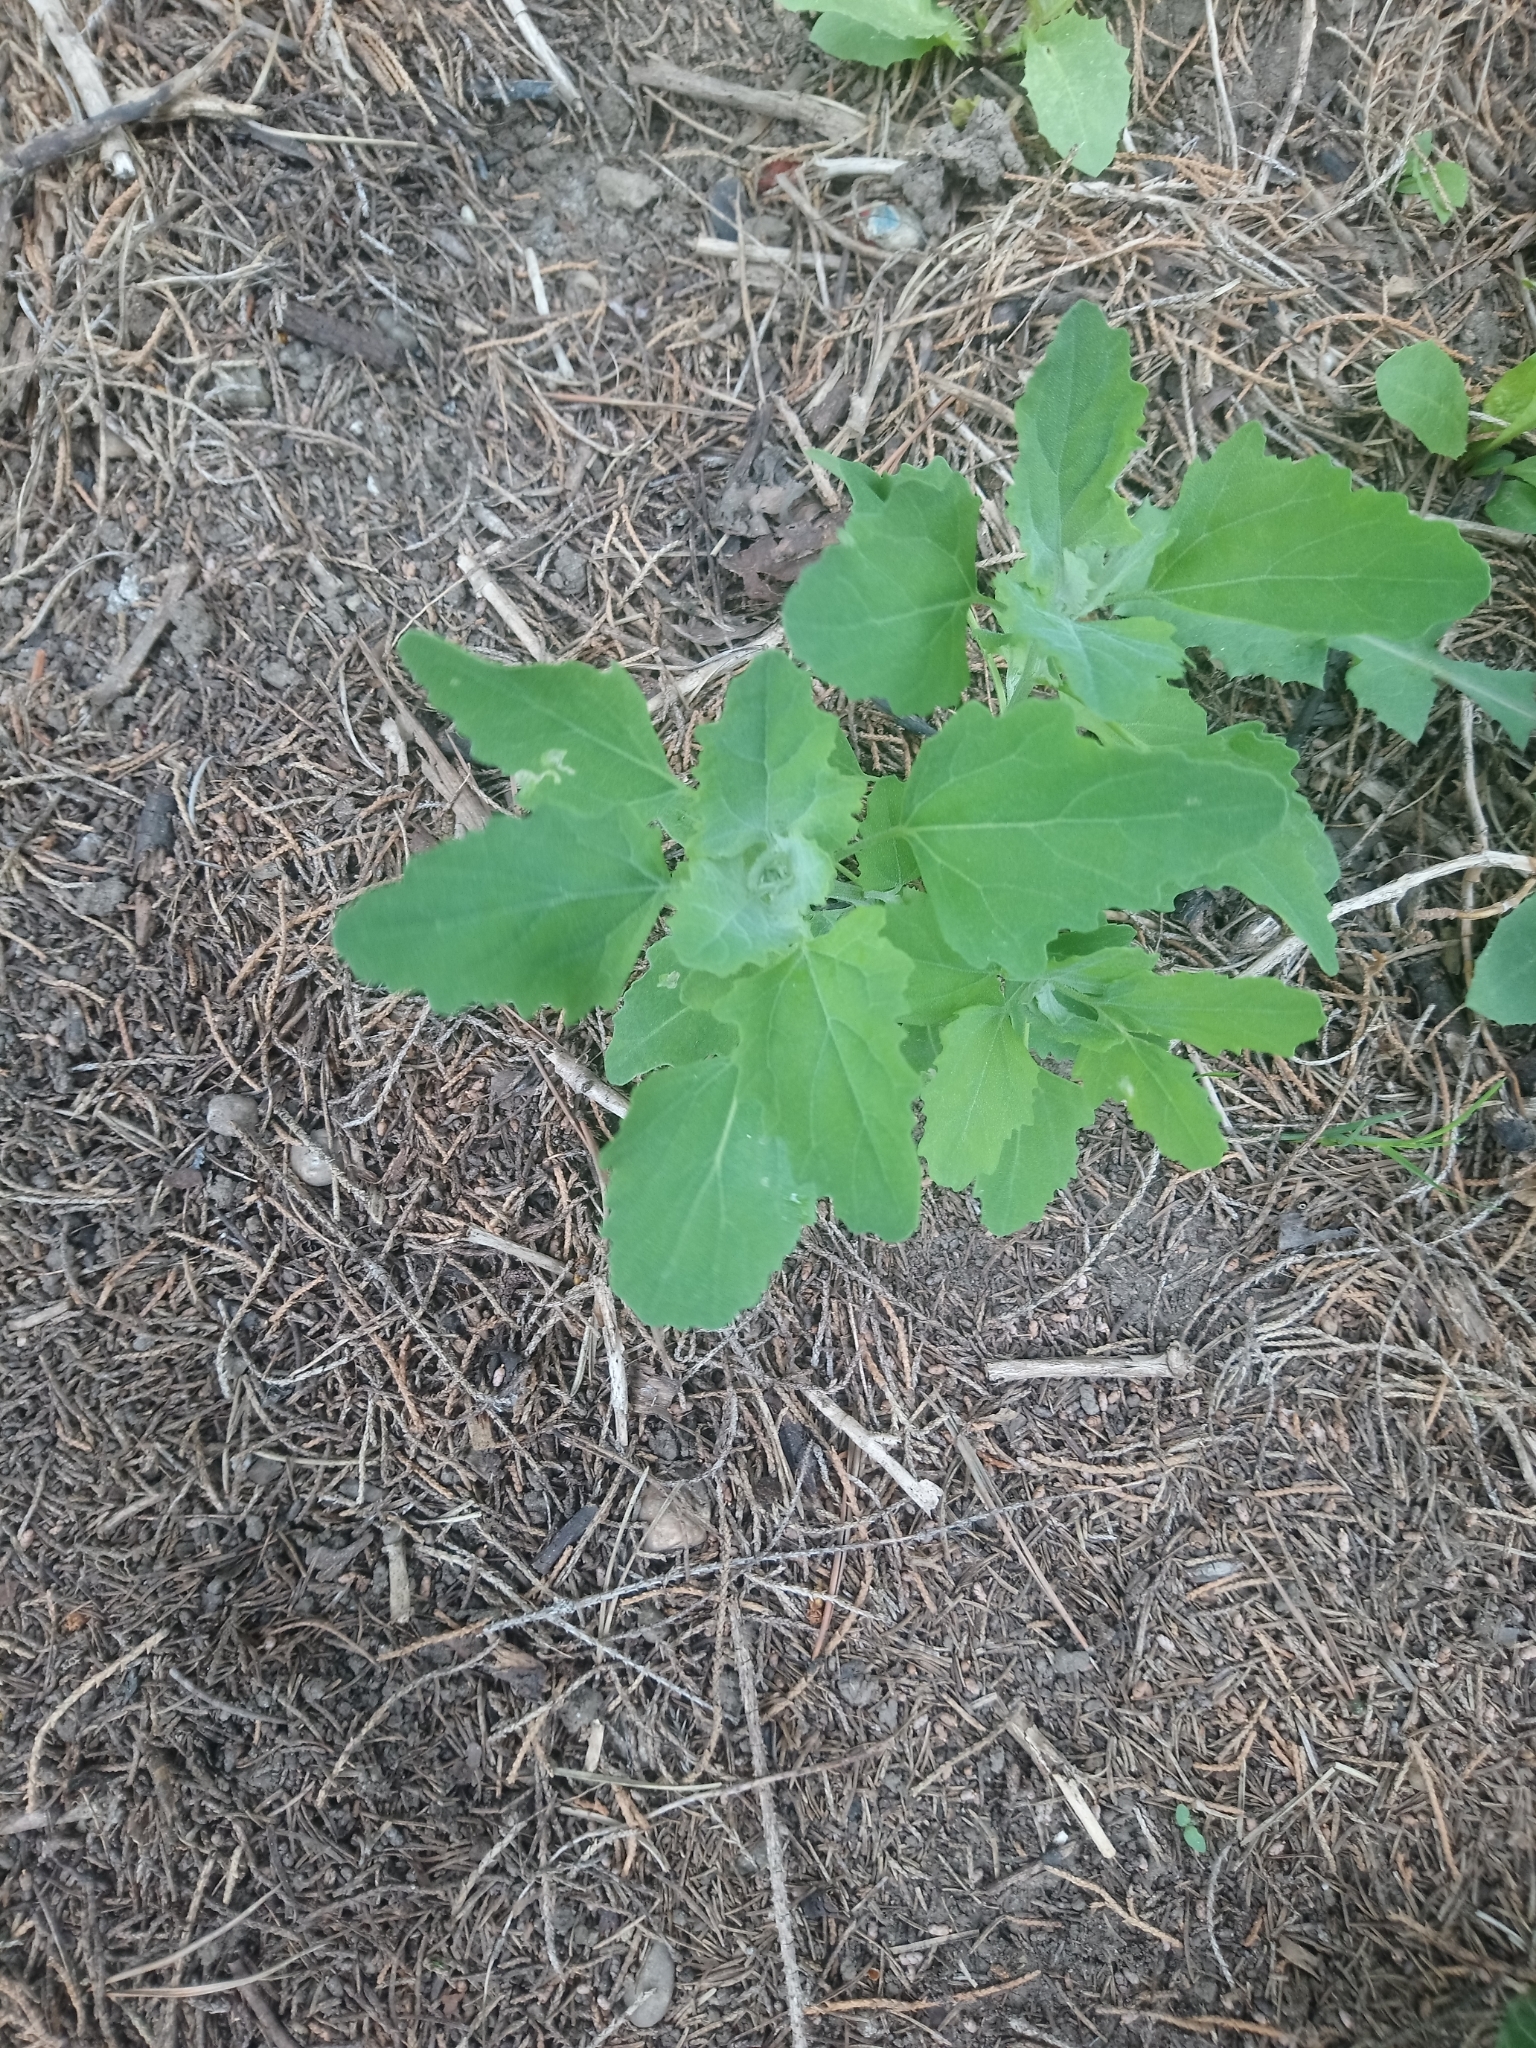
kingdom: Plantae
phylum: Tracheophyta
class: Magnoliopsida
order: Caryophyllales
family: Amaranthaceae
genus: Chenopodium
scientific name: Chenopodium album
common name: Fat-hen
